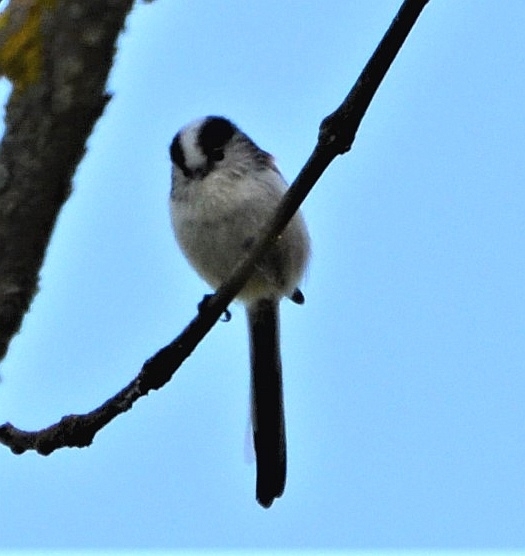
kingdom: Animalia
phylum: Chordata
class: Aves
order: Passeriformes
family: Aegithalidae
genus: Aegithalos
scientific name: Aegithalos caudatus
